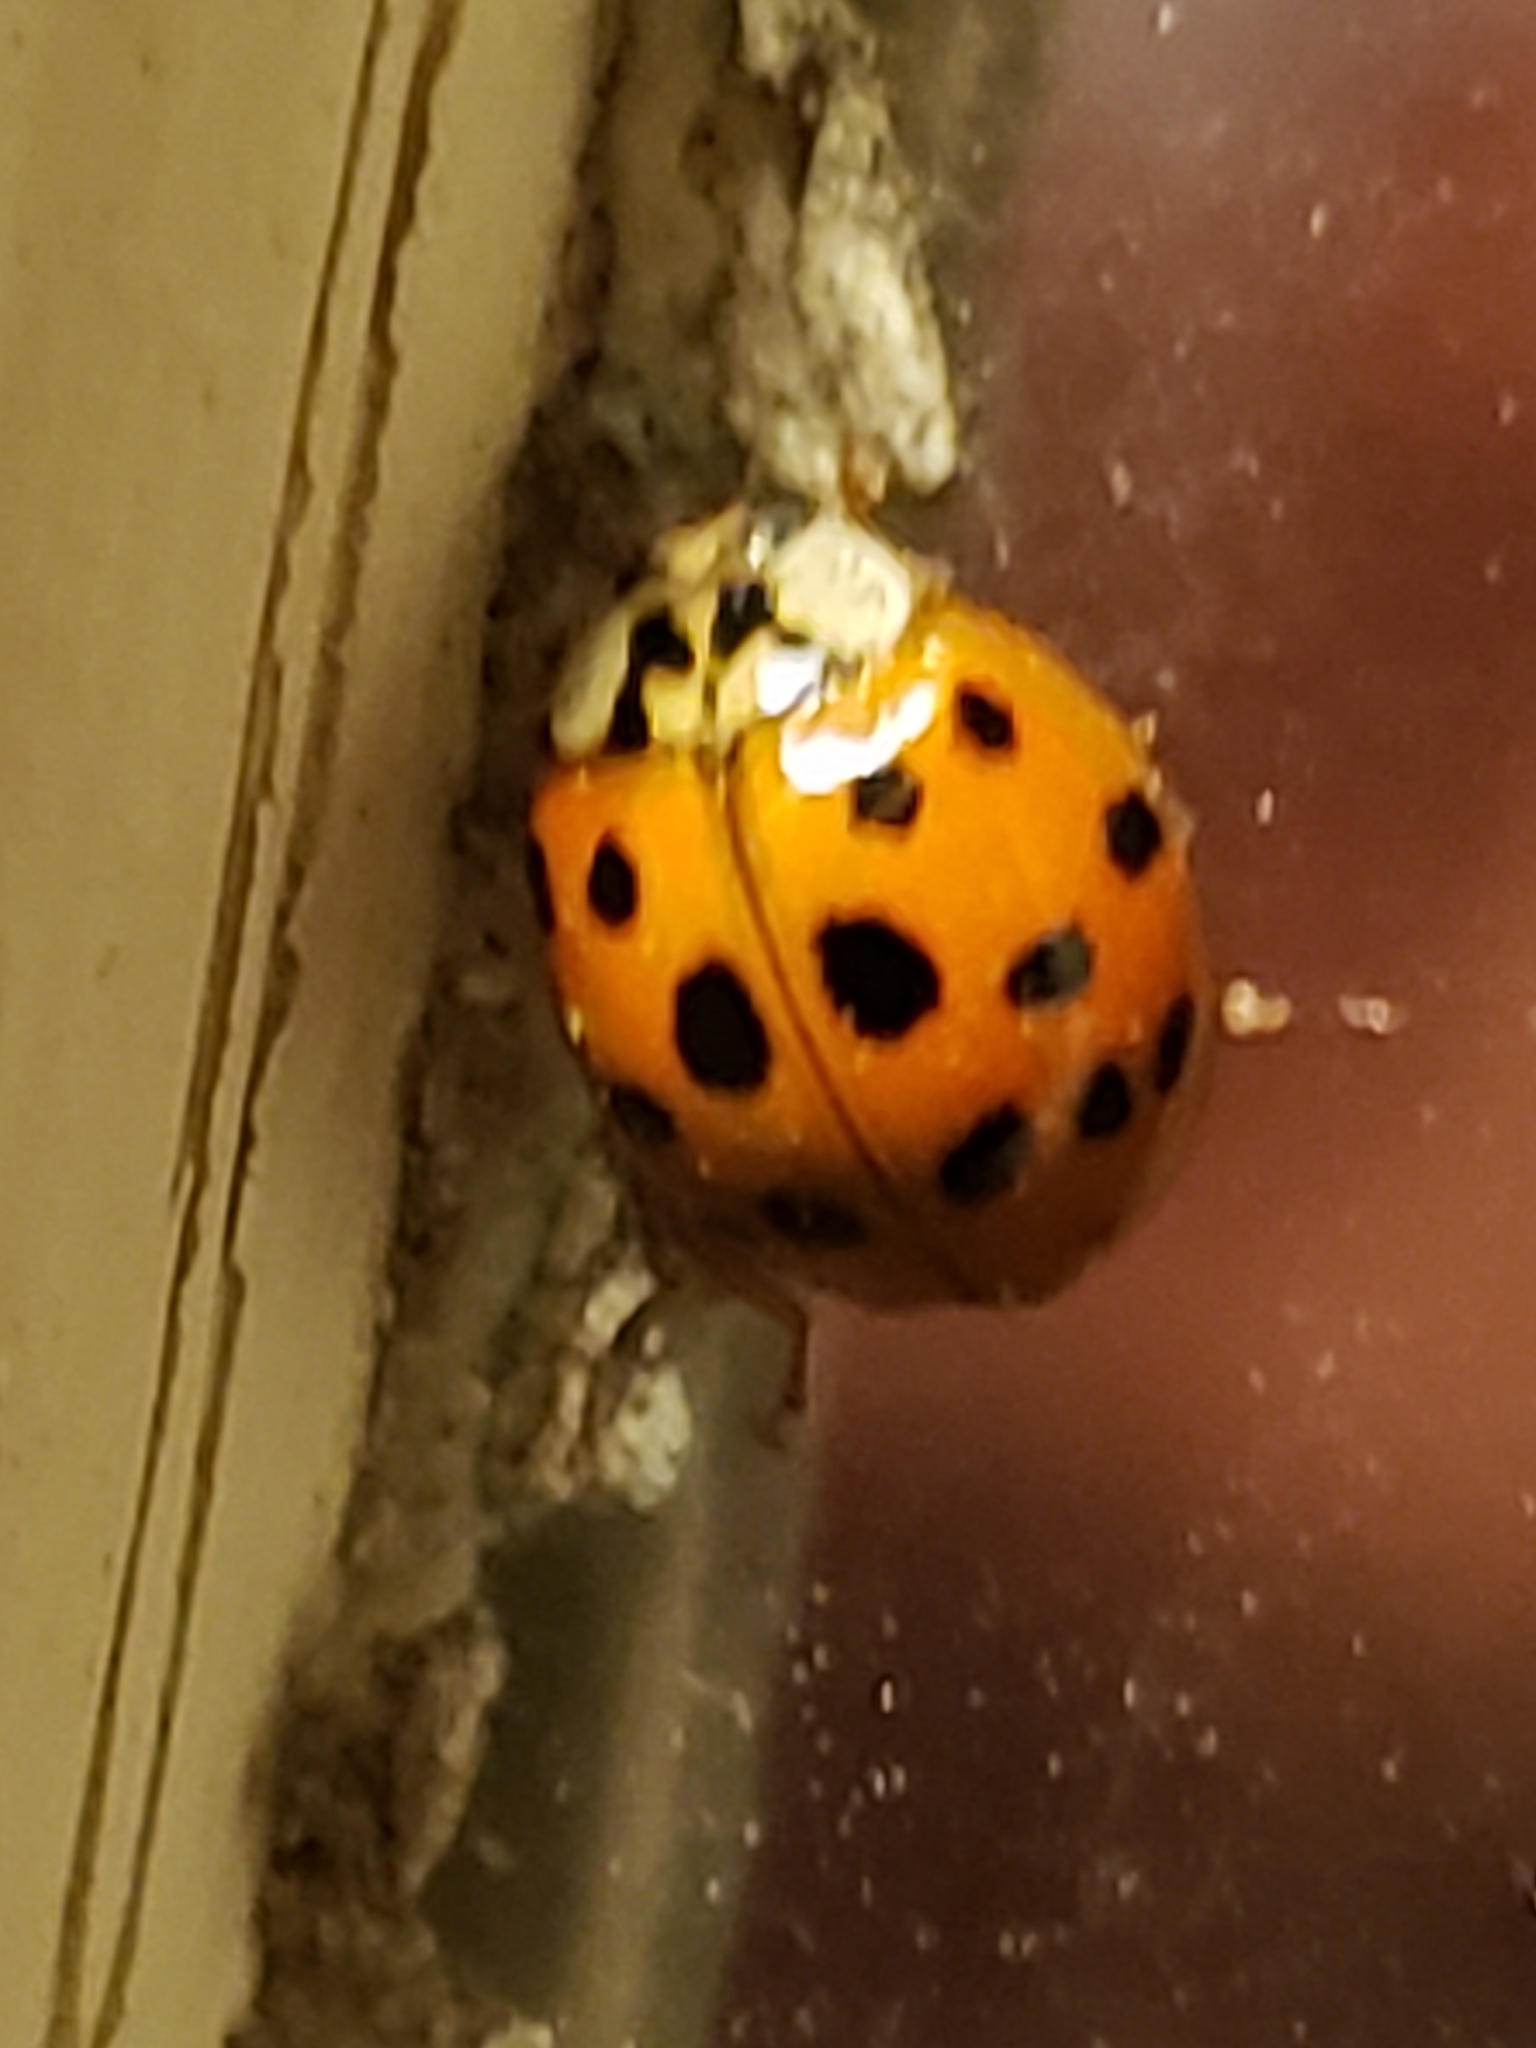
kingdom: Animalia
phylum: Arthropoda
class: Insecta
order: Coleoptera
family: Coccinellidae
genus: Harmonia
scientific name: Harmonia axyridis
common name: Harlequin ladybird
